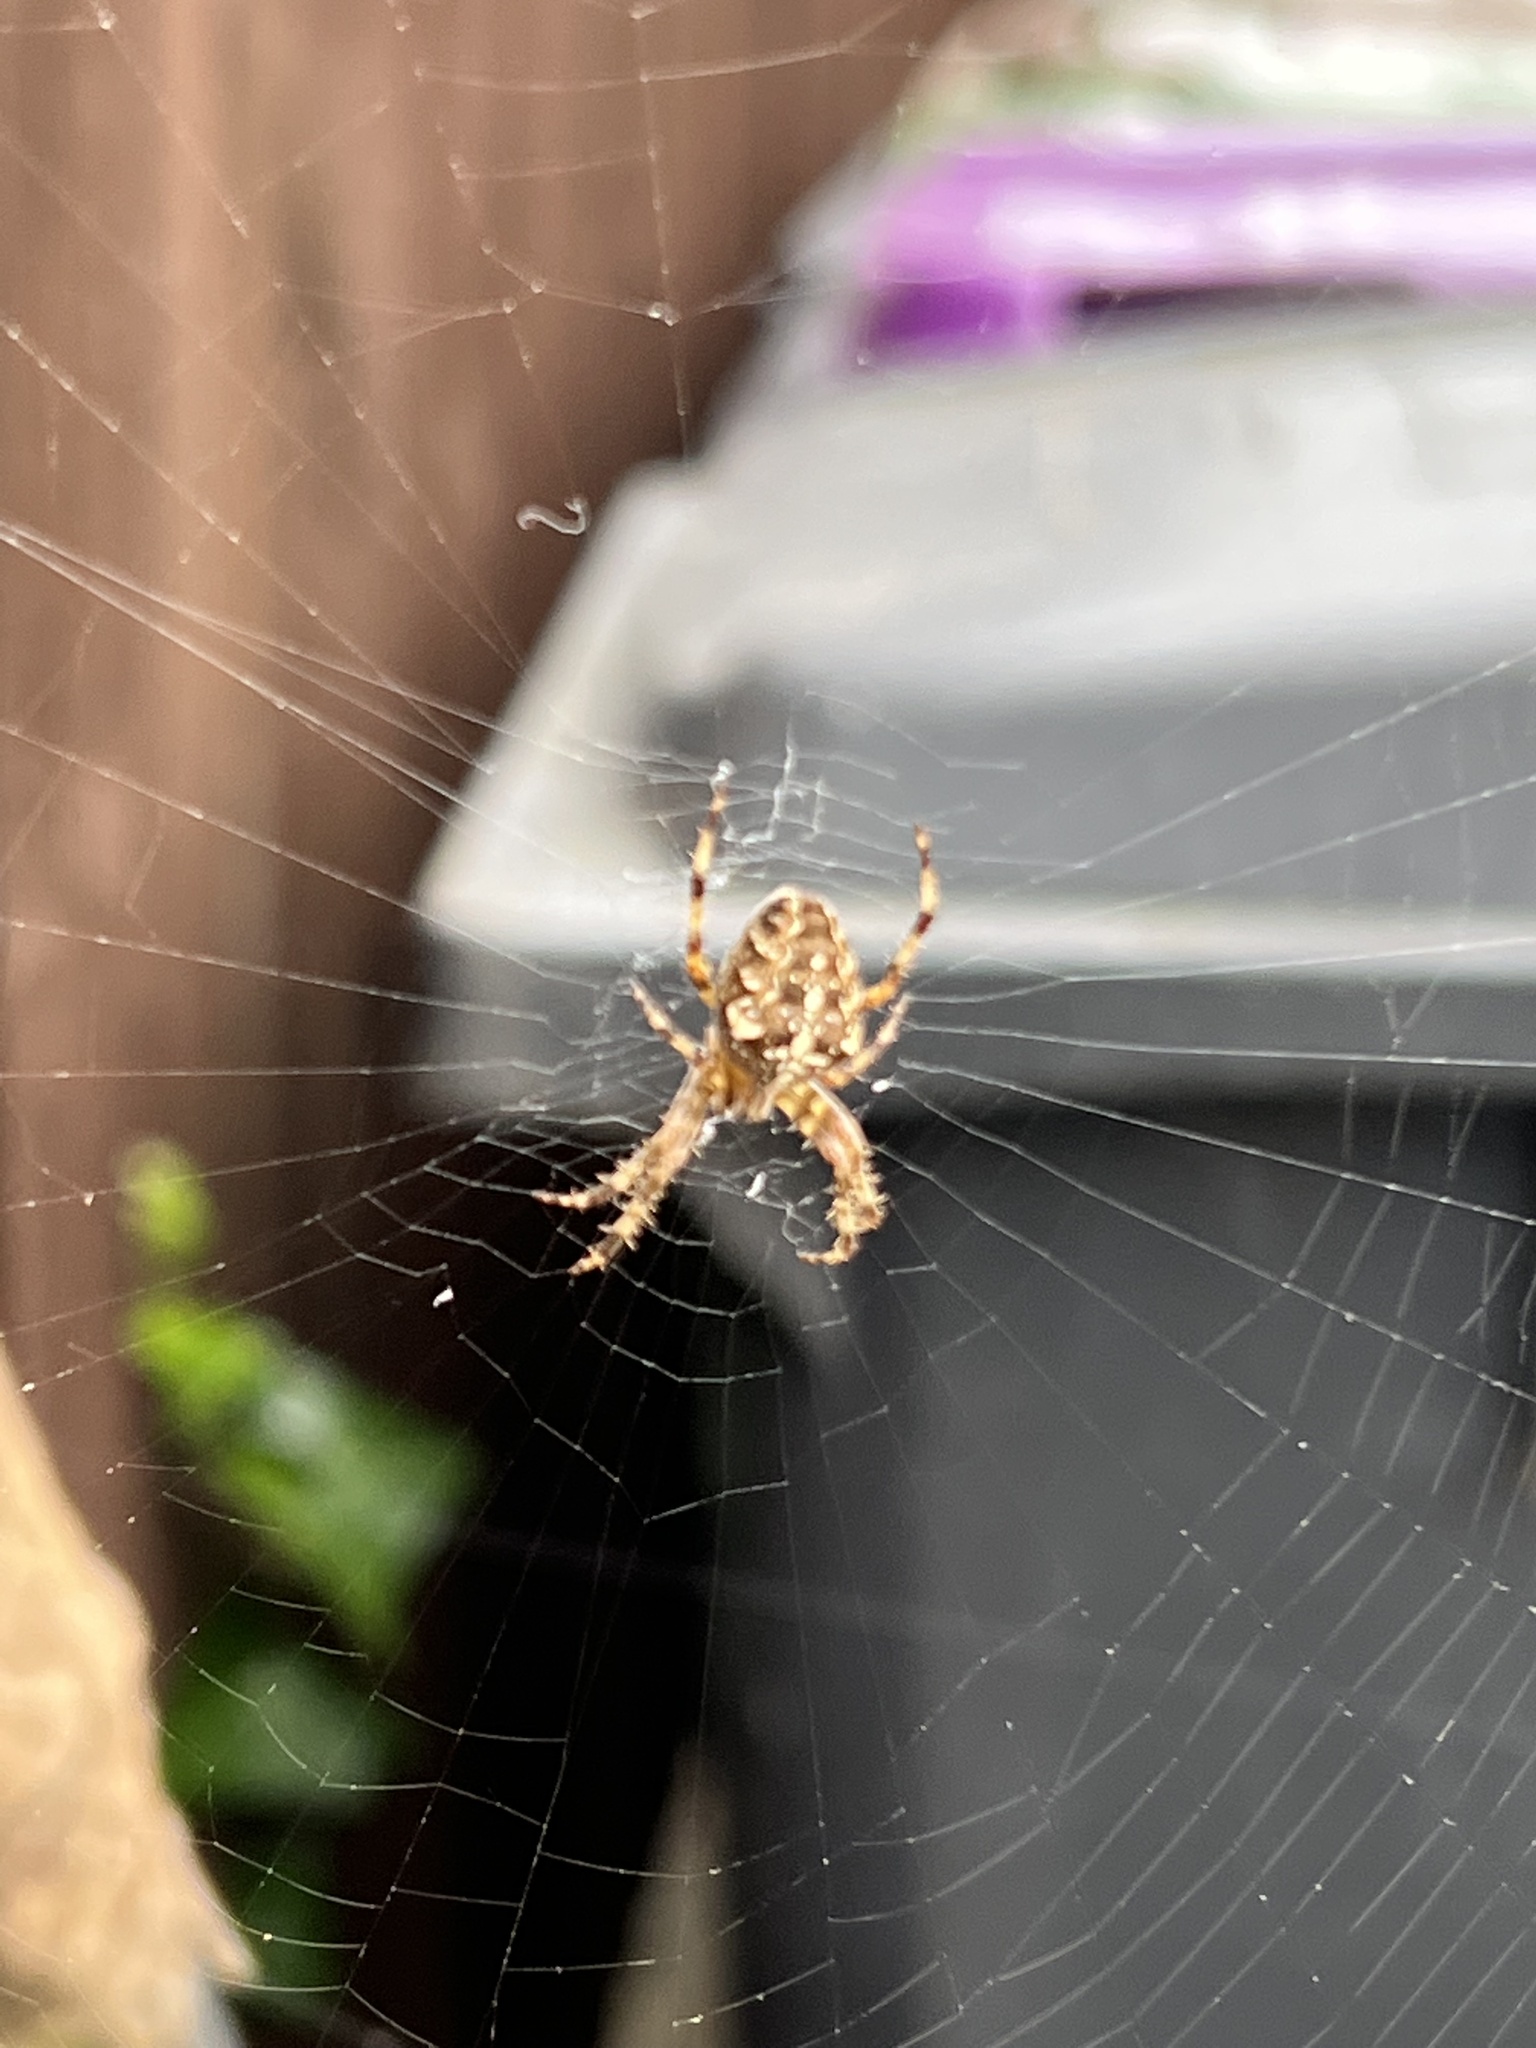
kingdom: Animalia
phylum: Arthropoda
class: Arachnida
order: Araneae
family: Araneidae
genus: Araneus
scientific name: Araneus diadematus
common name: Cross orbweaver
